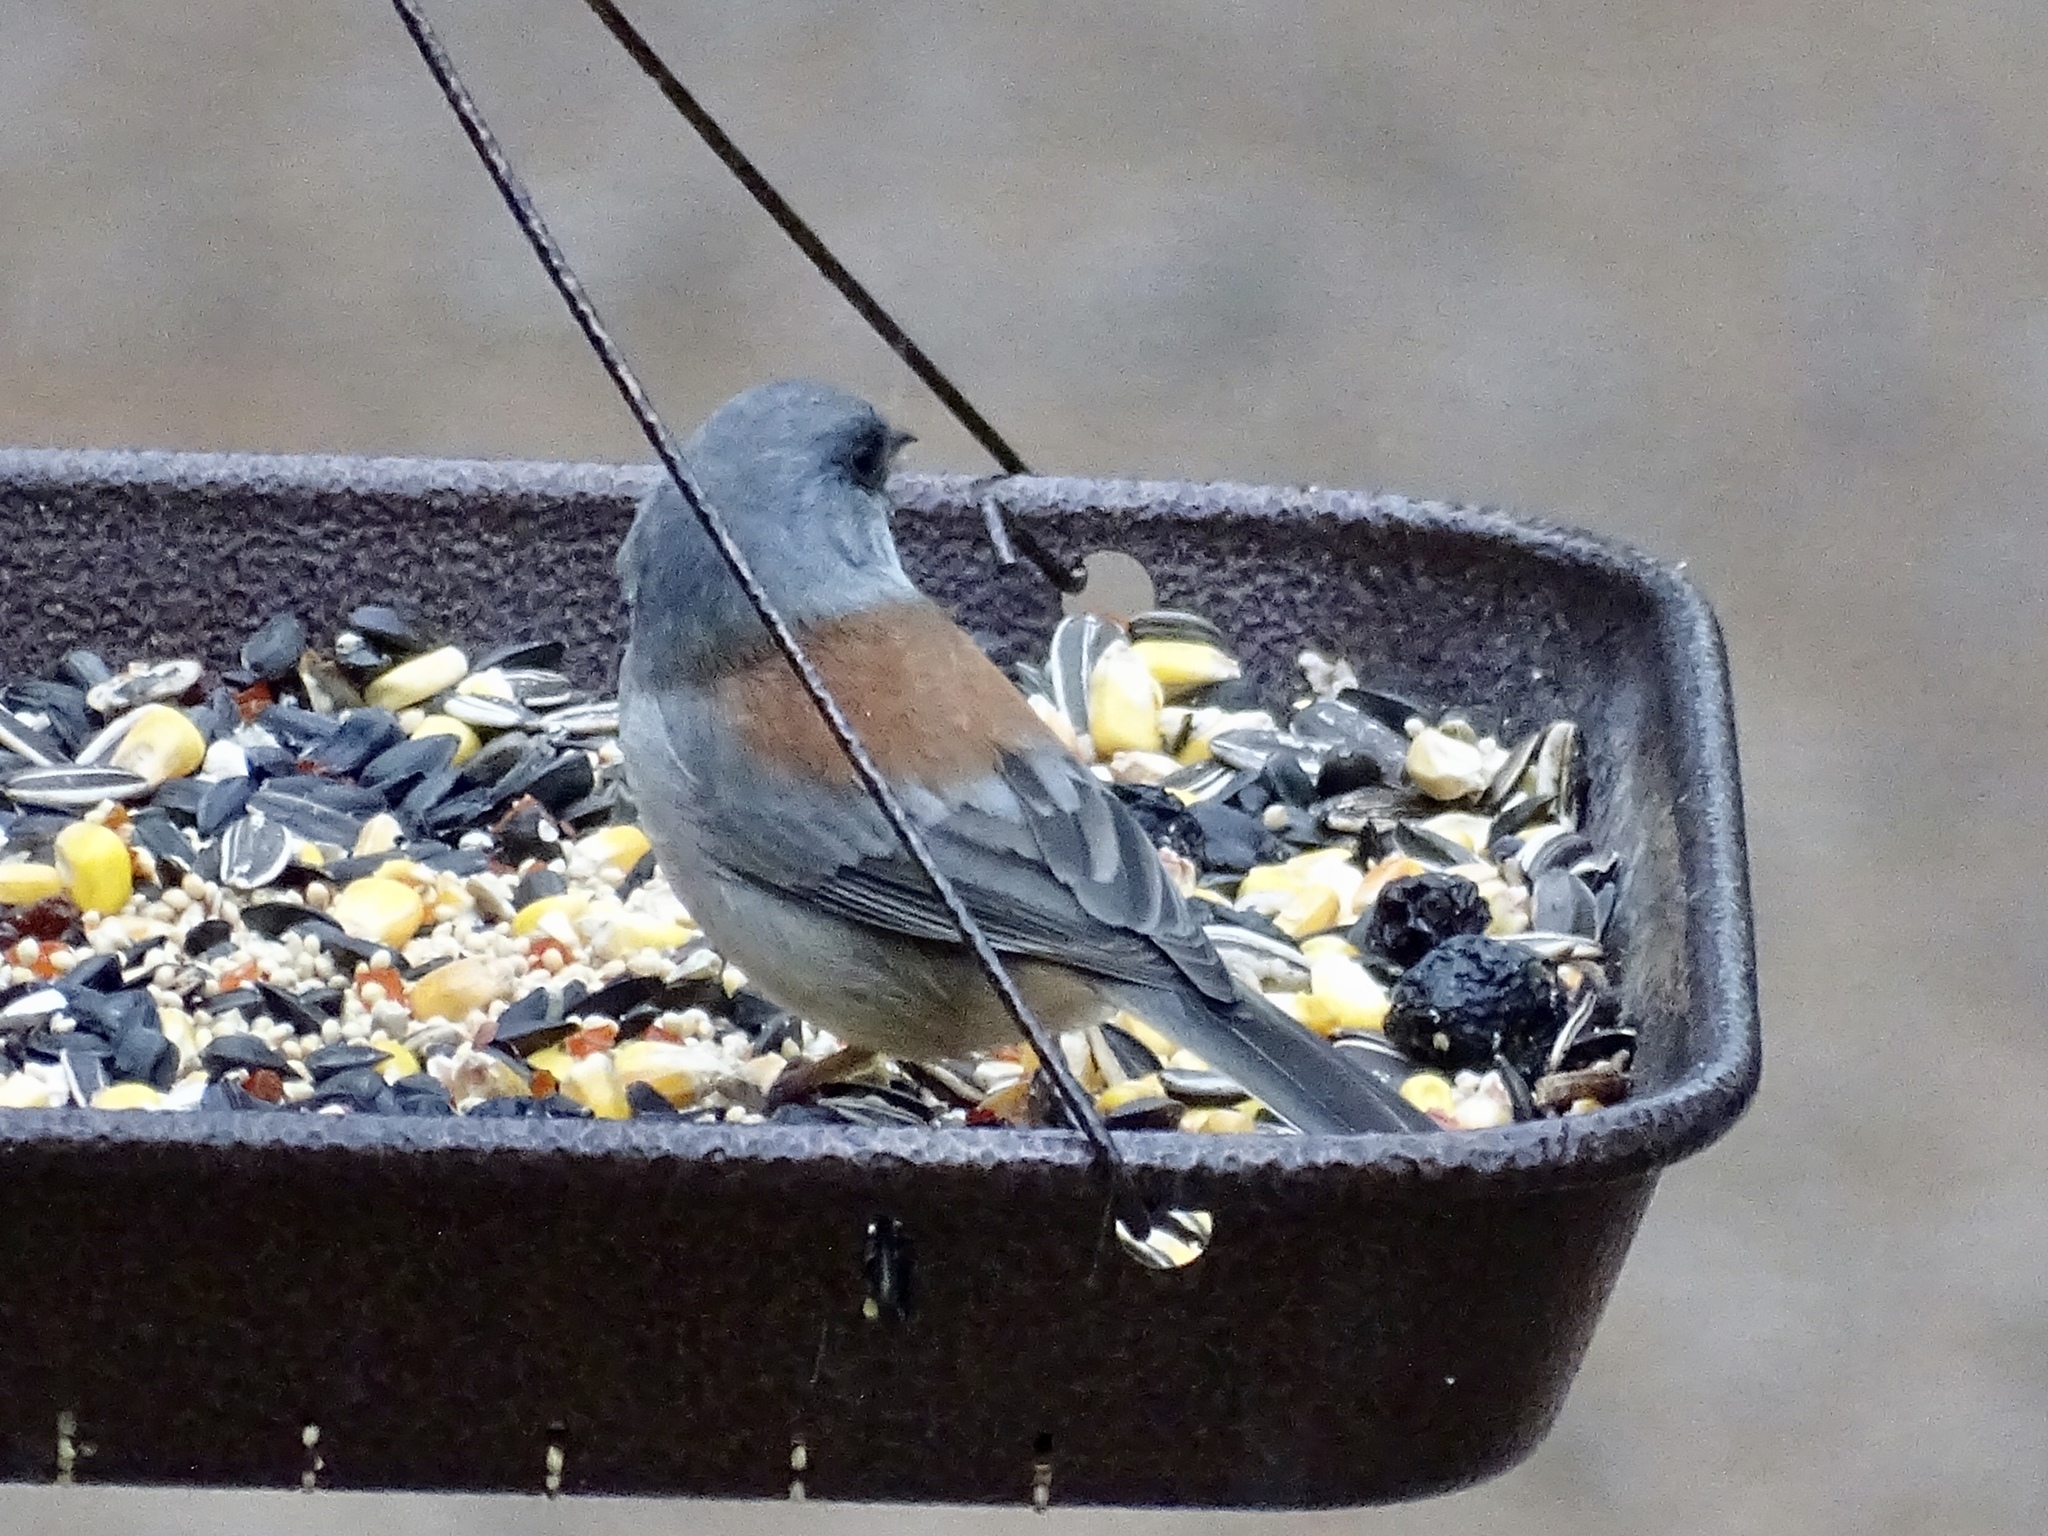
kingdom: Animalia
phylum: Chordata
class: Aves
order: Passeriformes
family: Passerellidae
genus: Junco
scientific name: Junco hyemalis
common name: Dark-eyed junco
